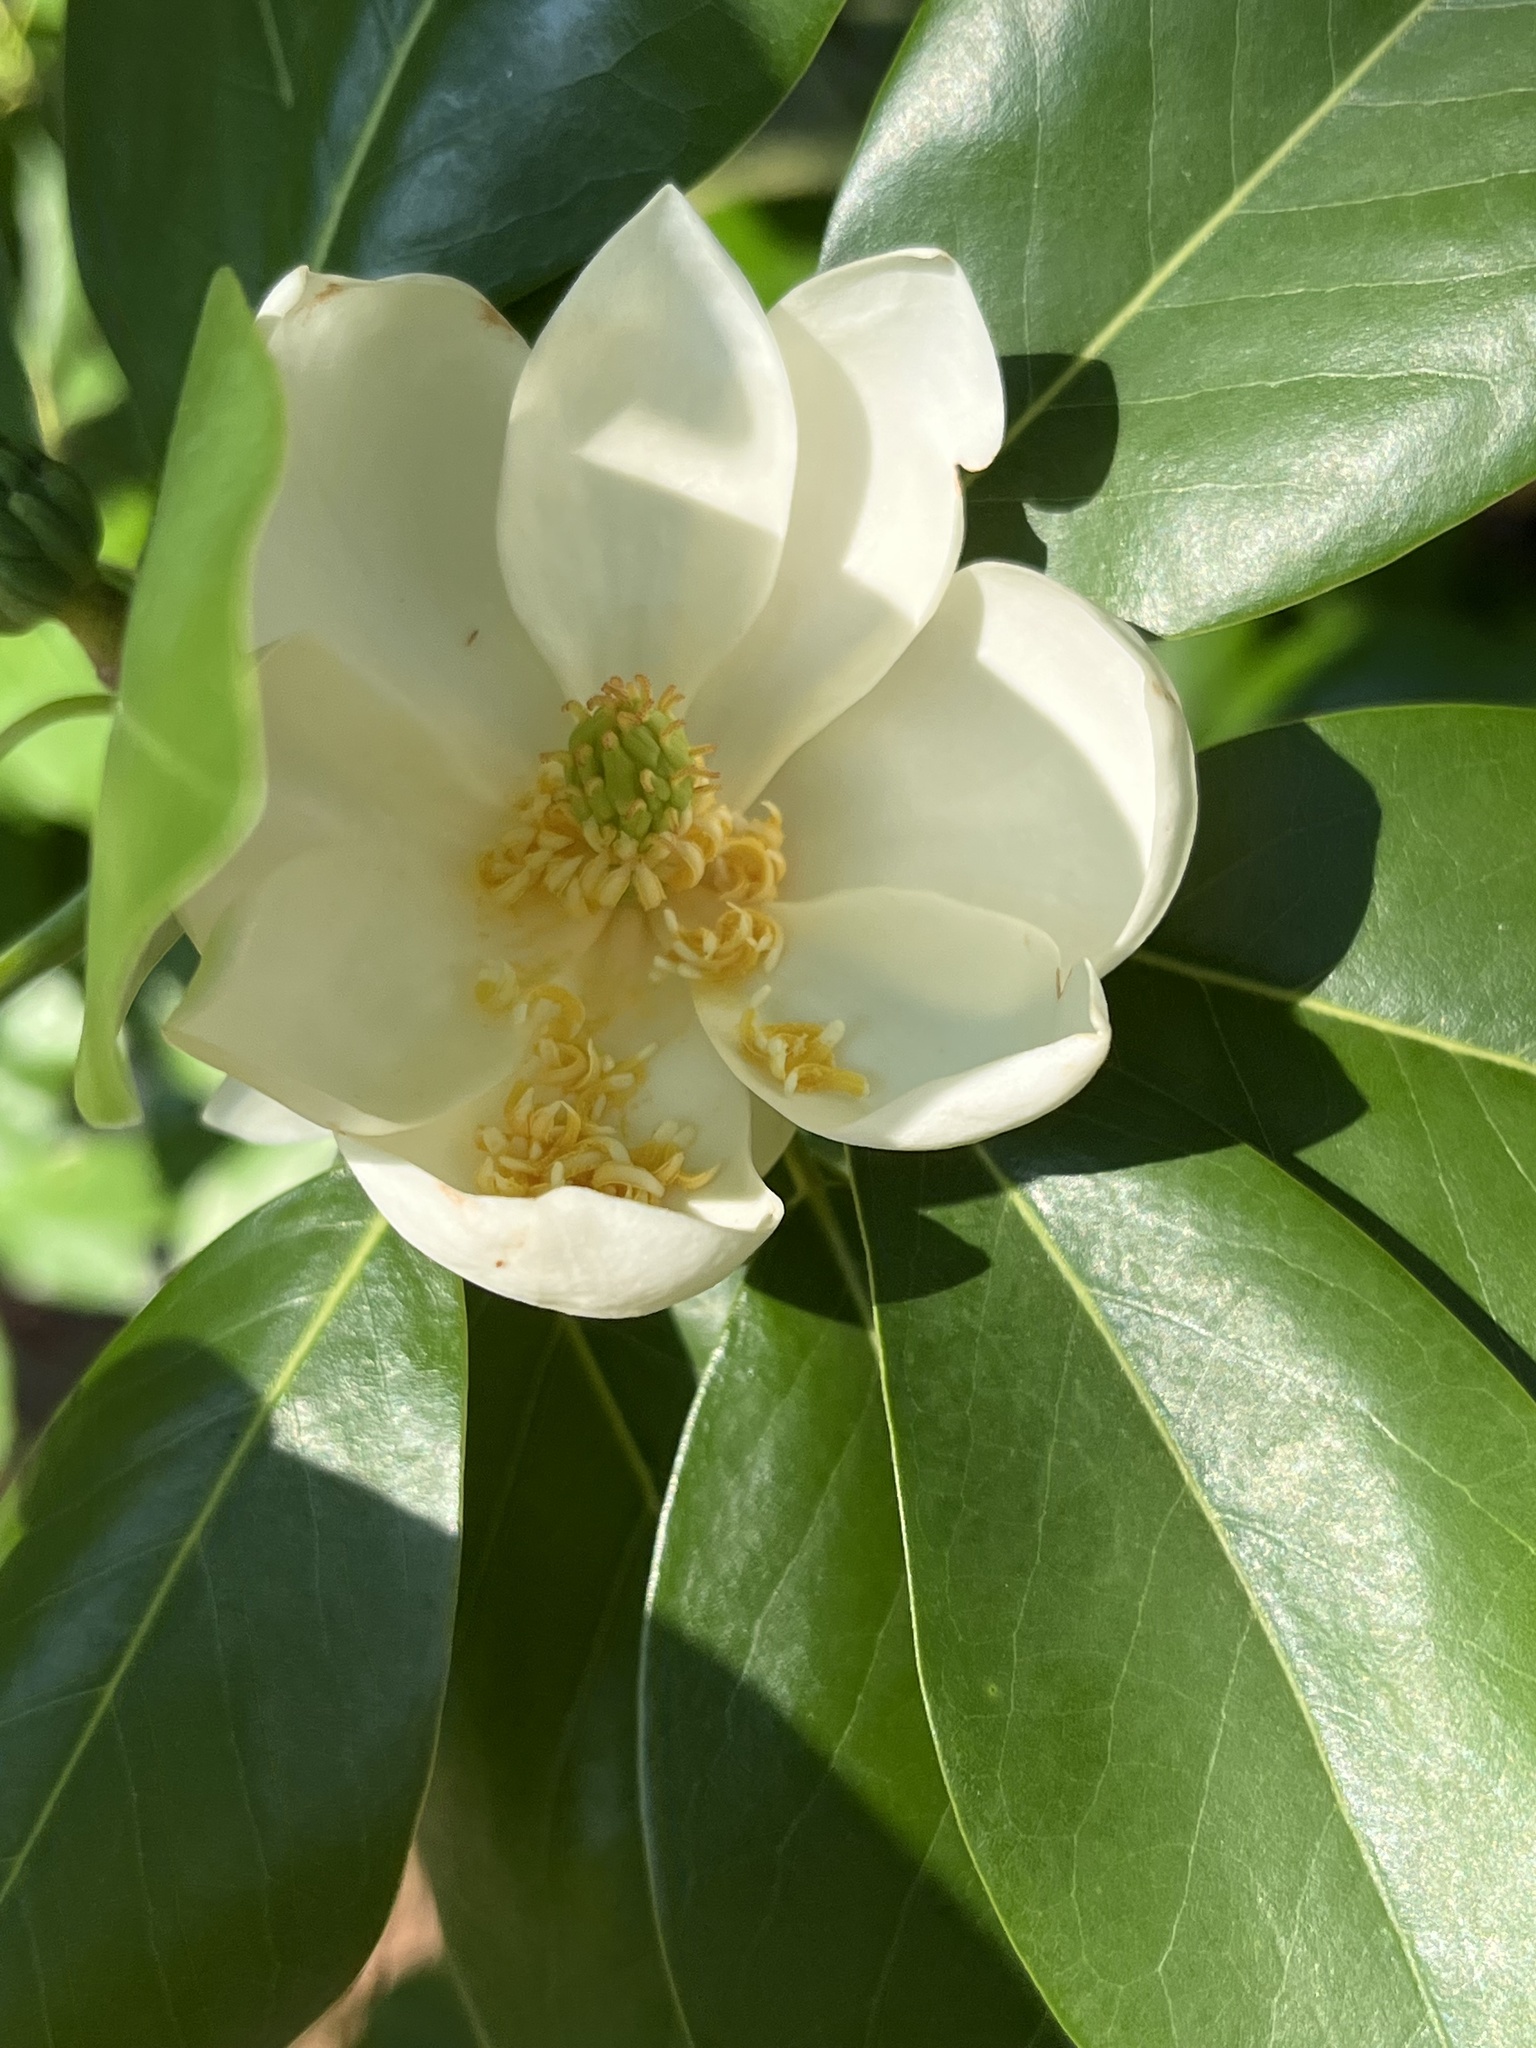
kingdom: Plantae
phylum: Tracheophyta
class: Magnoliopsida
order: Magnoliales
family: Magnoliaceae
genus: Magnolia
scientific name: Magnolia virginiana
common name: Swamp bay
